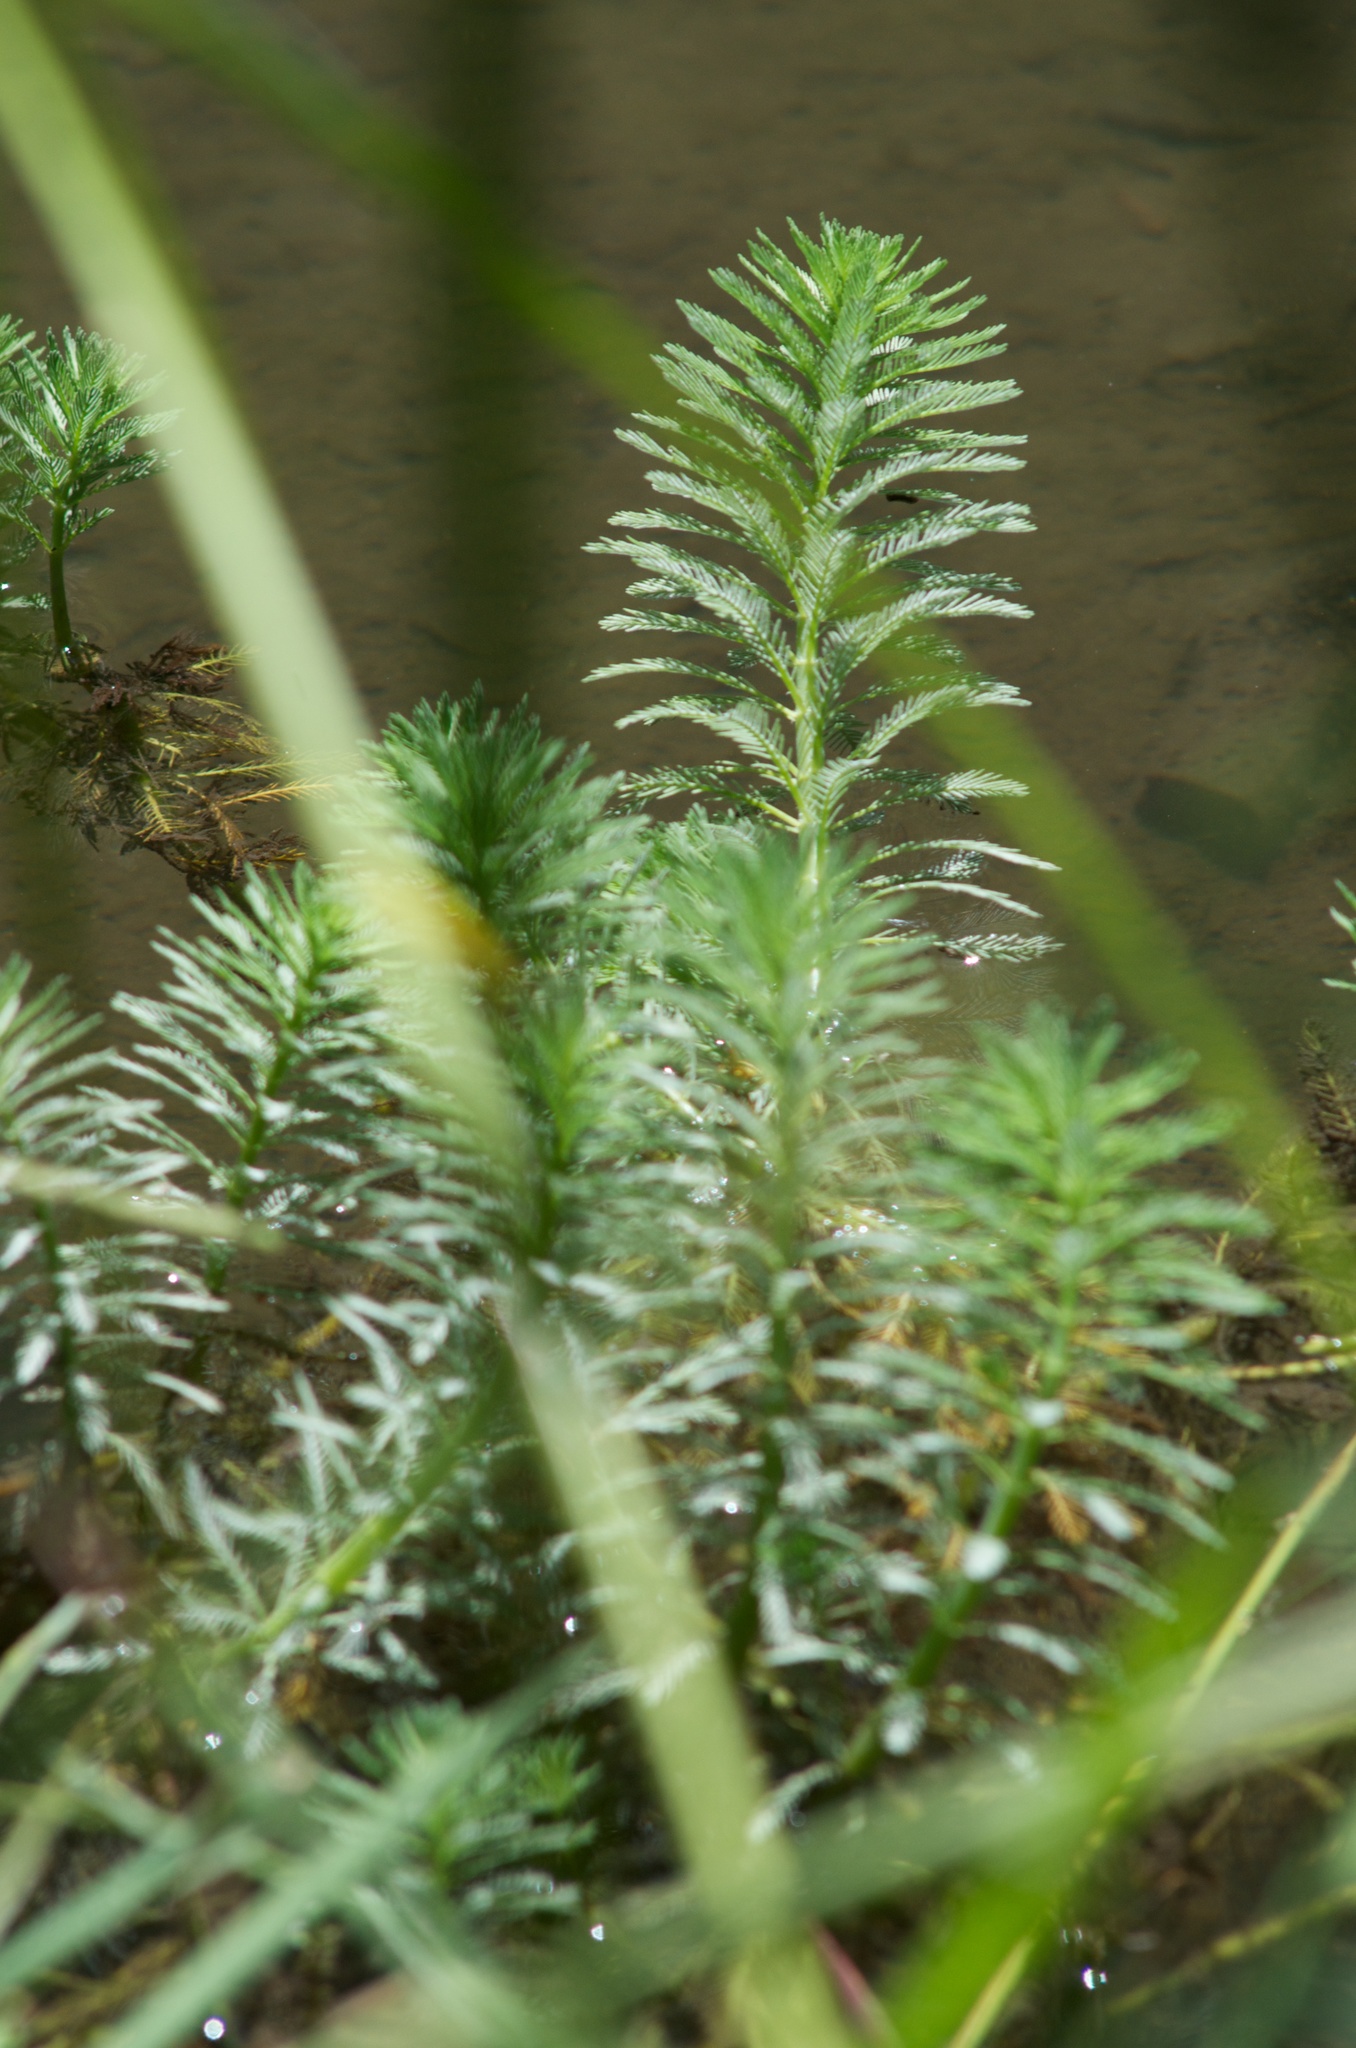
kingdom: Plantae
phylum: Tracheophyta
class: Magnoliopsida
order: Saxifragales
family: Haloragaceae
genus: Myriophyllum
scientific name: Myriophyllum aquaticum
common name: Parrot's feather
